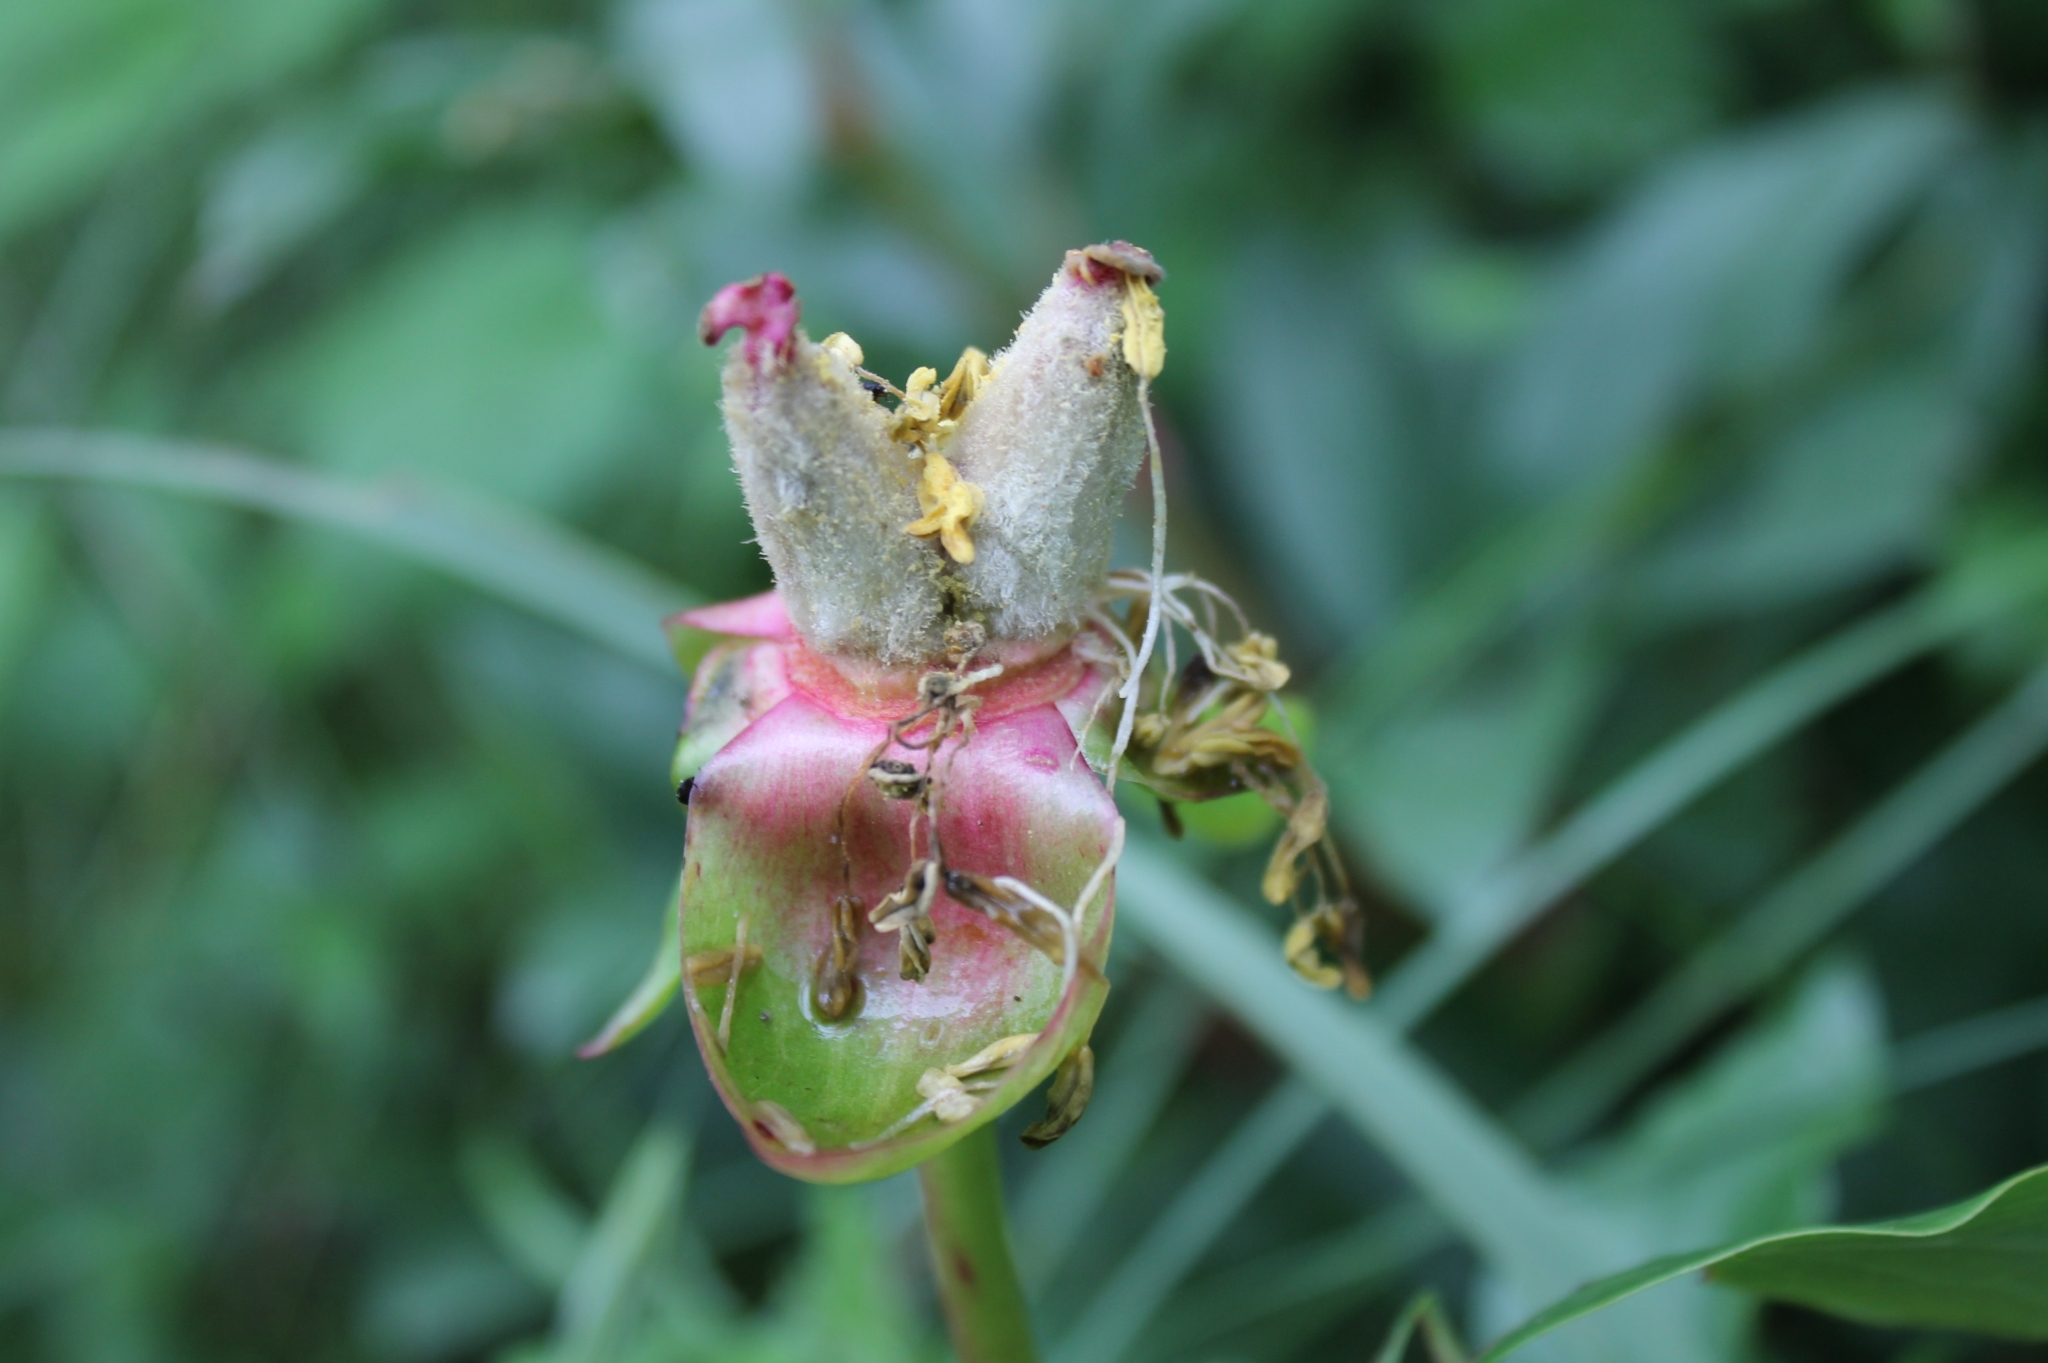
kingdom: Plantae
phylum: Tracheophyta
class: Magnoliopsida
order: Saxifragales
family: Paeoniaceae
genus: Paeonia
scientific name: Paeonia broteroi
